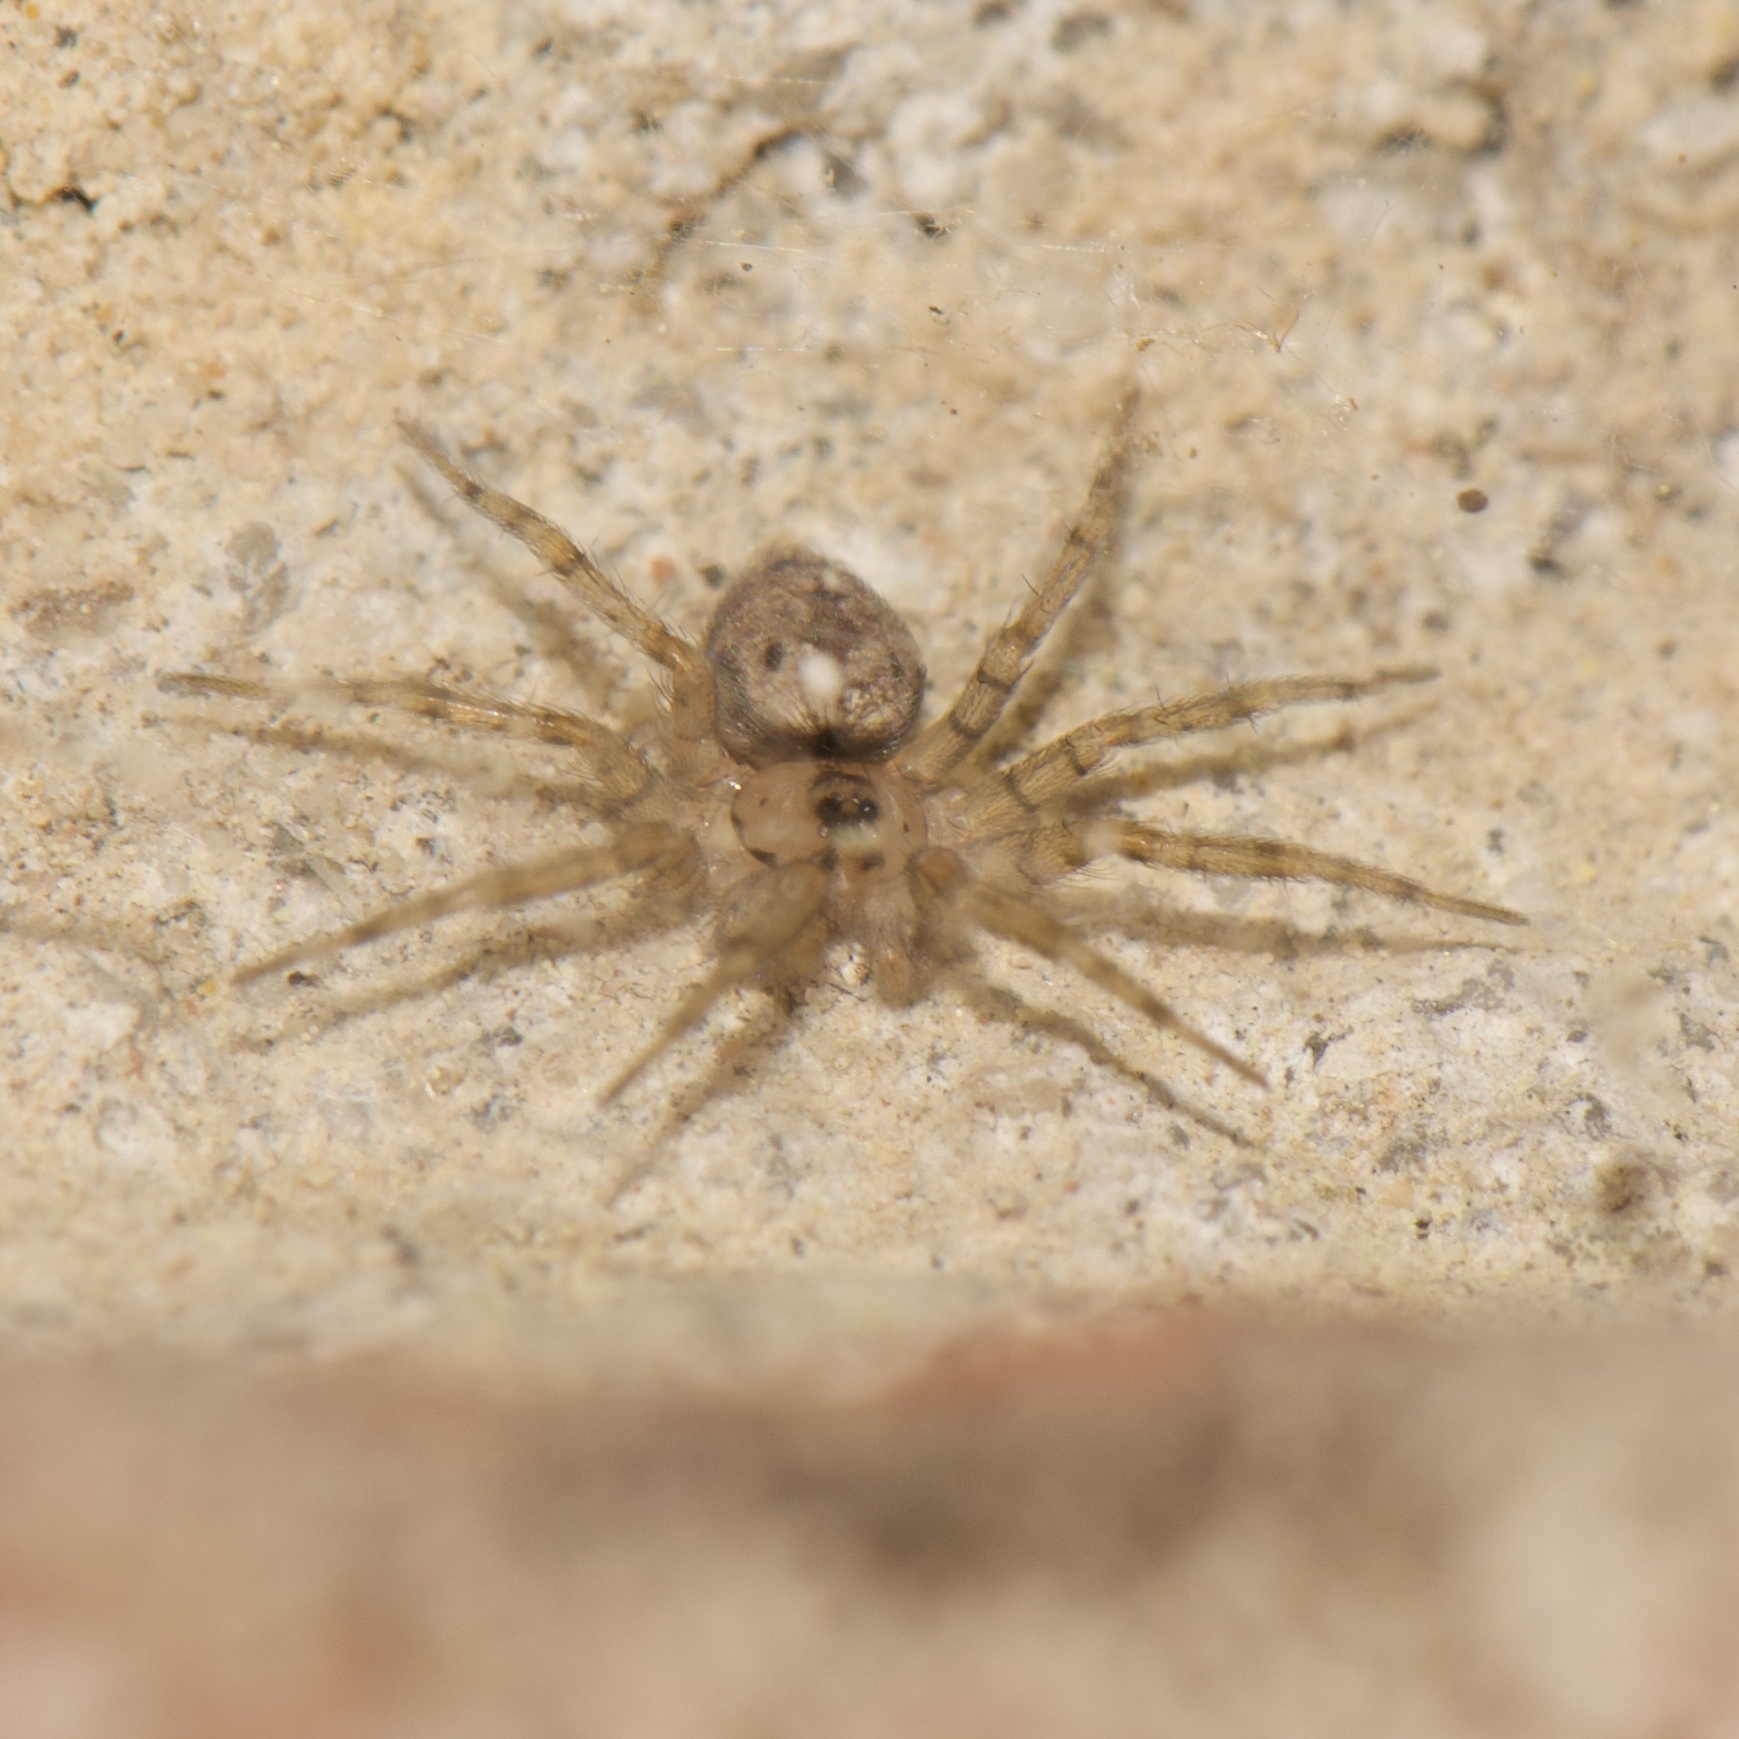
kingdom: Animalia
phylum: Arthropoda
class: Arachnida
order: Araneae
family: Oecobiidae
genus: Oecobius
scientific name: Oecobius navus
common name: Flatmesh weaver
